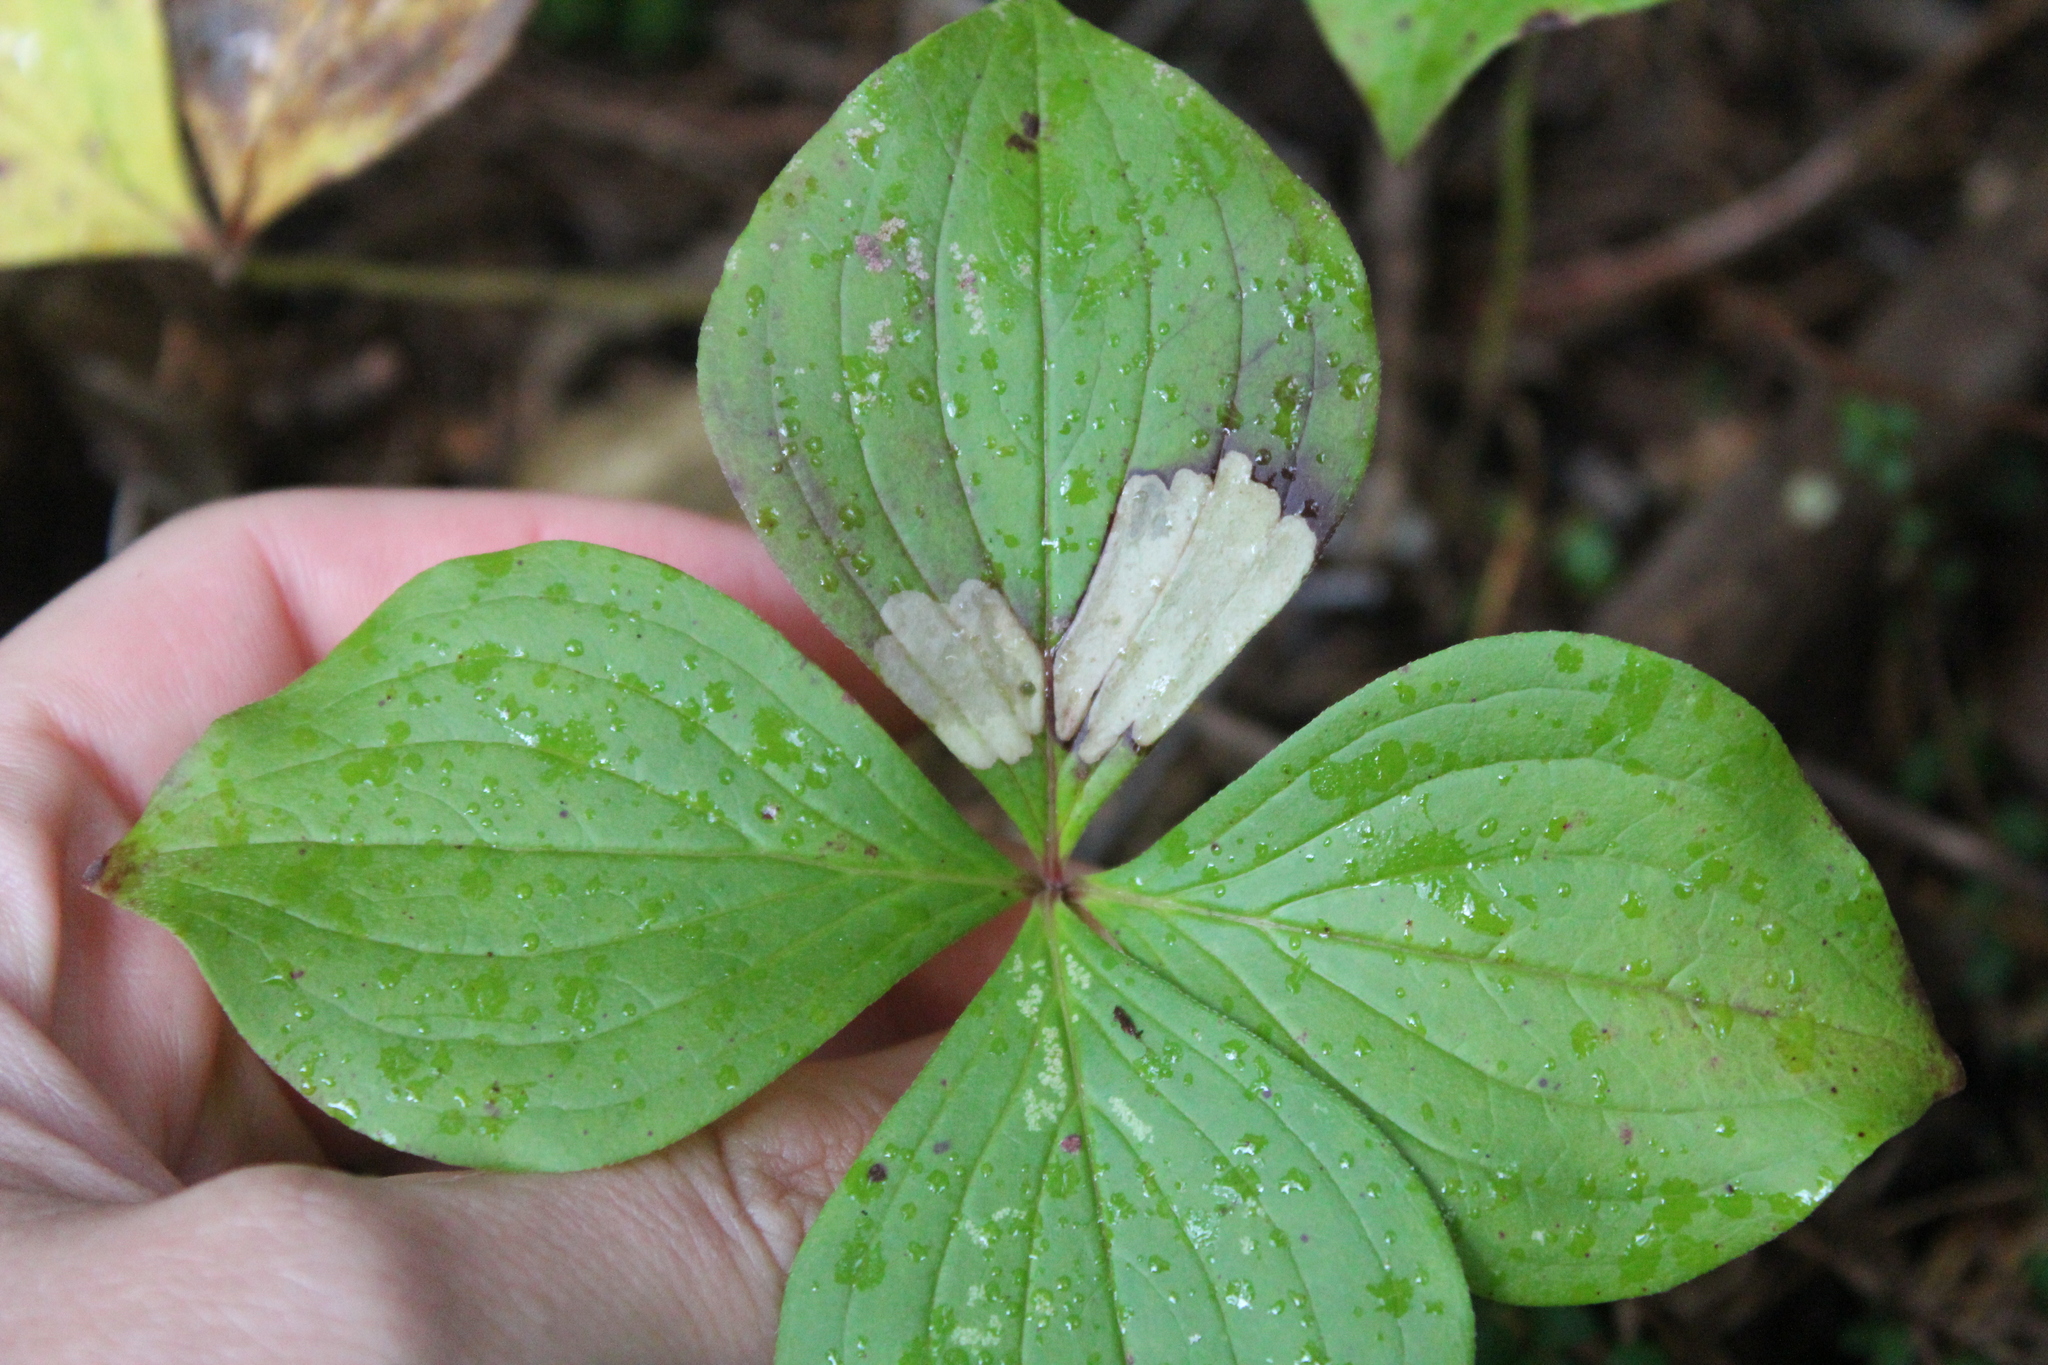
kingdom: Plantae
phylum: Tracheophyta
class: Magnoliopsida
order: Cornales
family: Cornaceae
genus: Cornus
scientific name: Cornus canadensis
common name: Creeping dogwood
